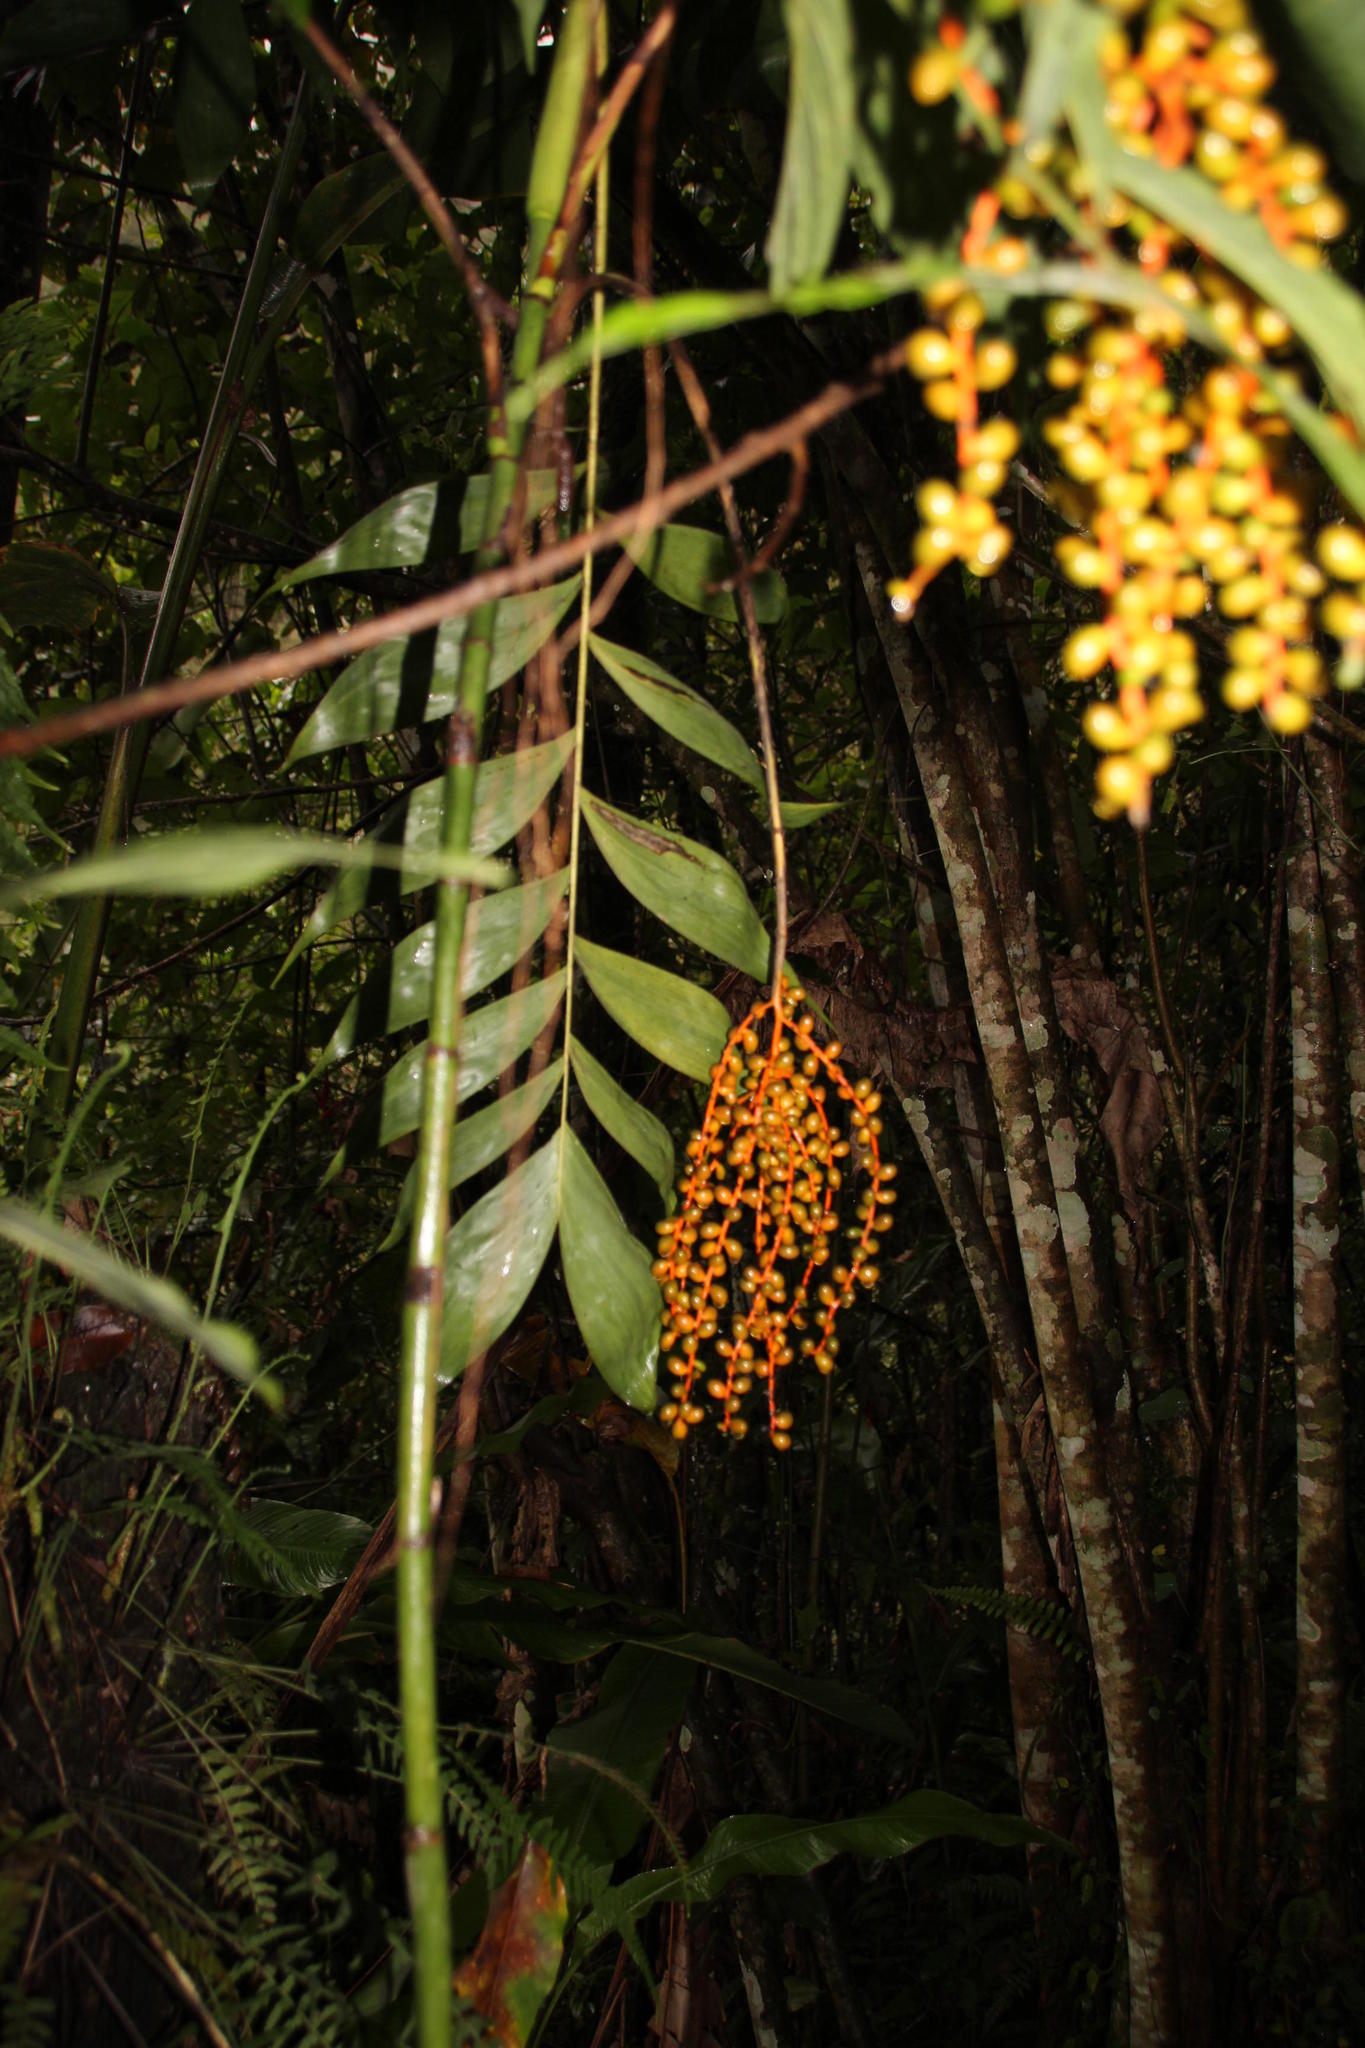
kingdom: Plantae
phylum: Tracheophyta
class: Liliopsida
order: Arecales
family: Arecaceae
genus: Chamaedorea
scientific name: Chamaedorea pinnatifrons
